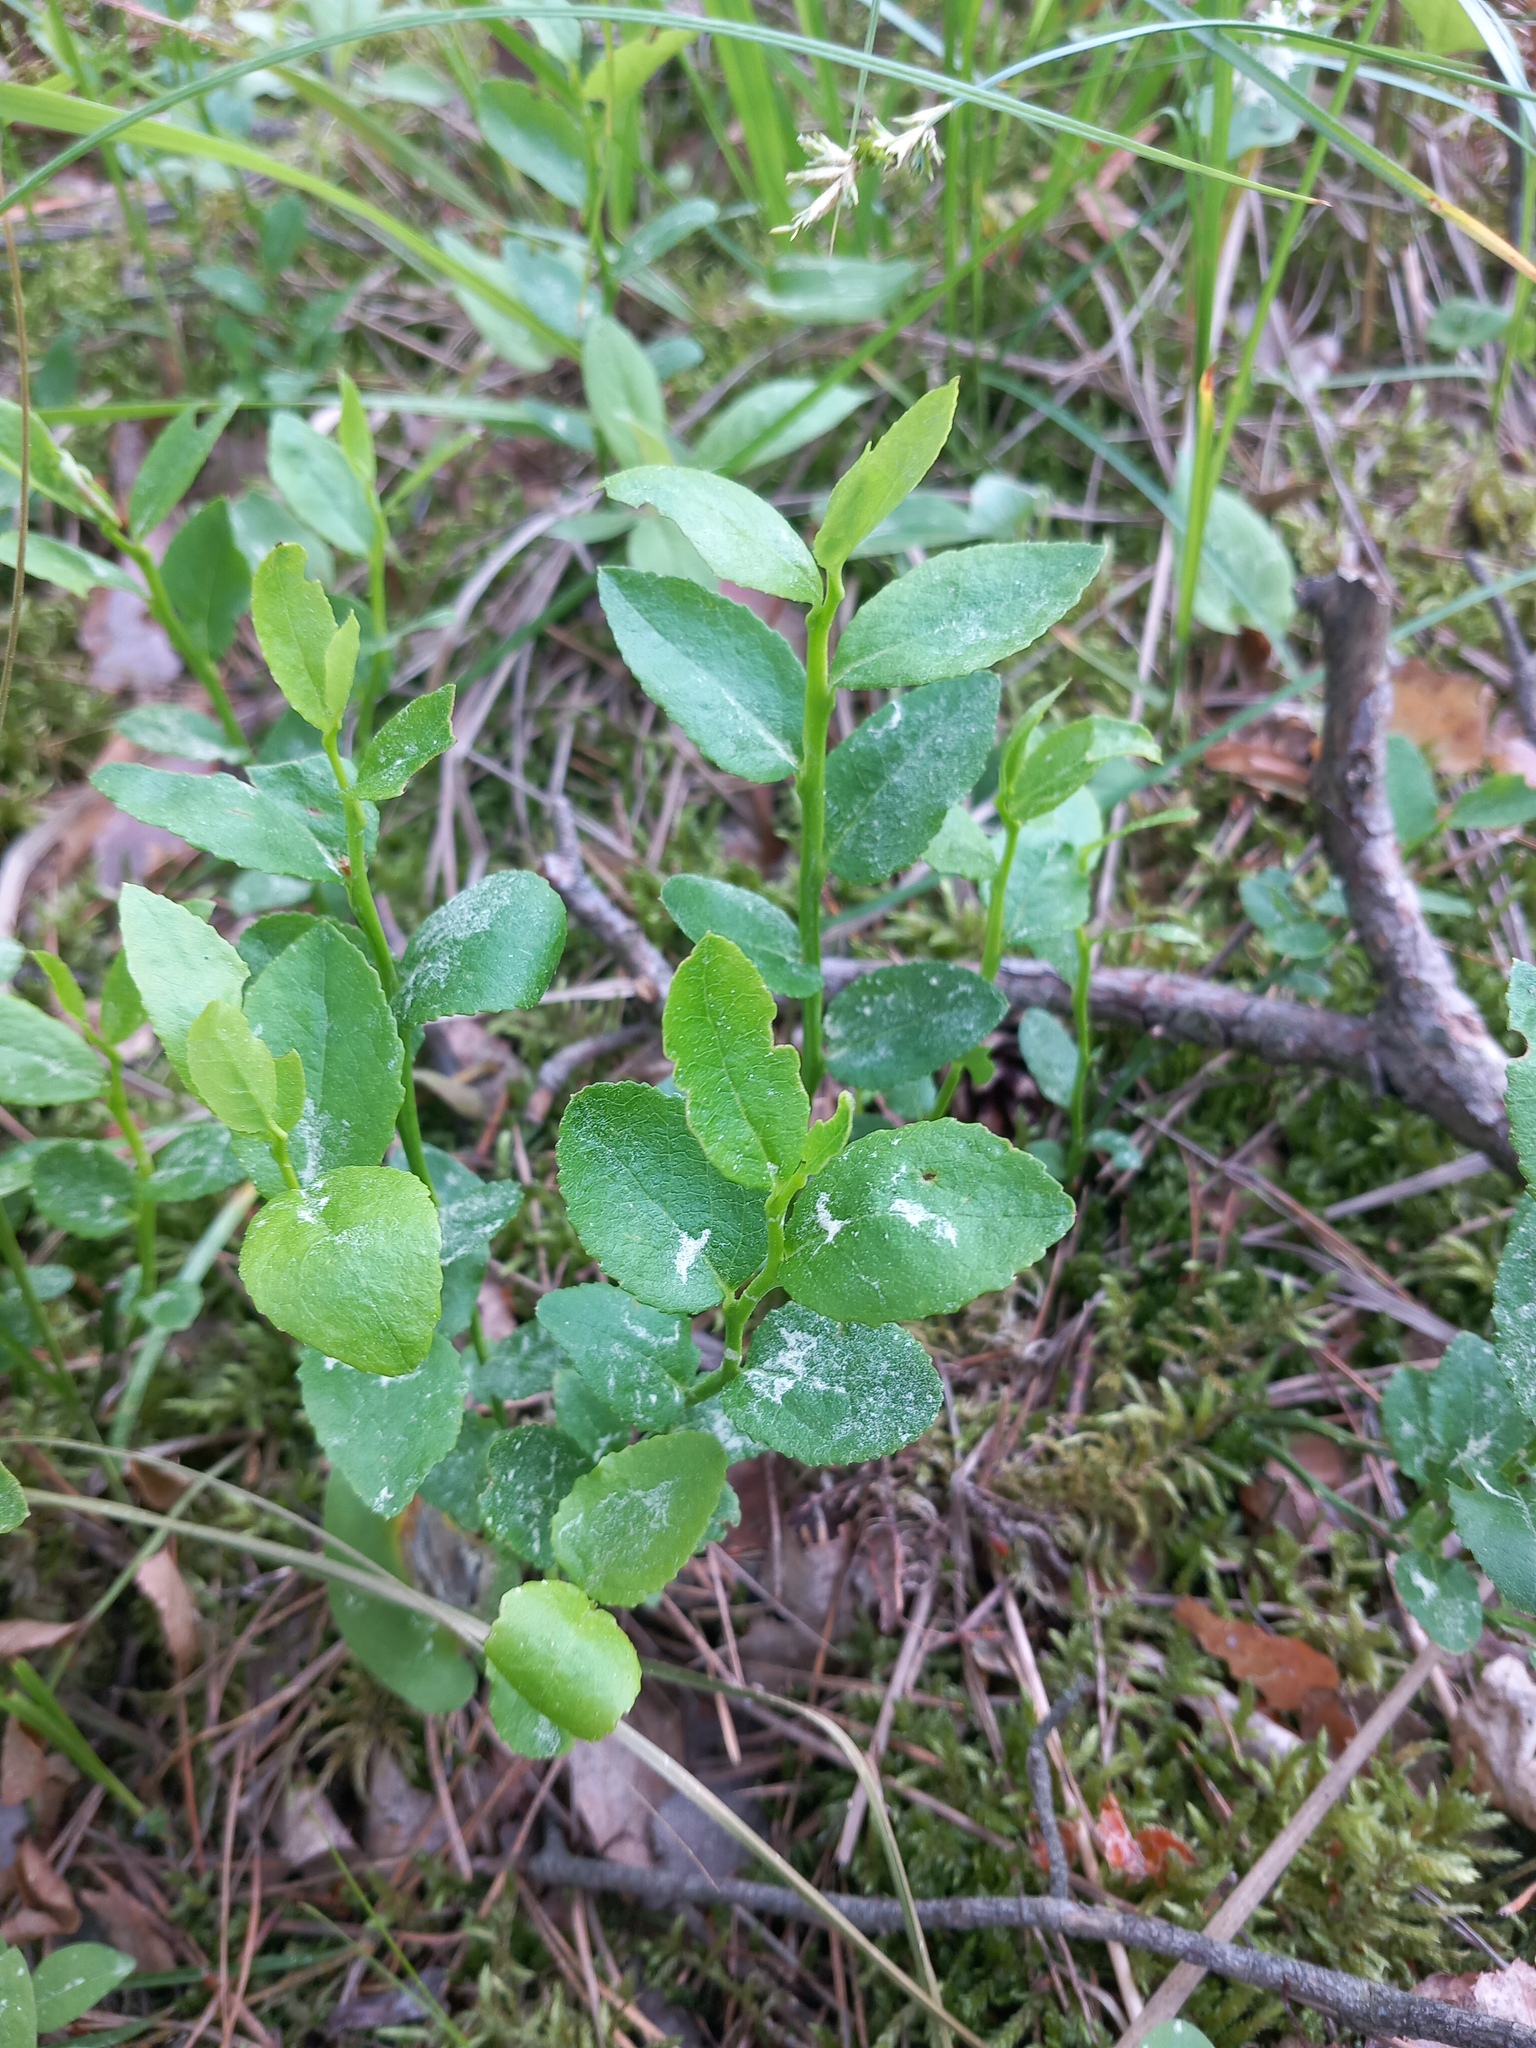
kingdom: Plantae
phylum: Tracheophyta
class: Magnoliopsida
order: Ericales
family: Ericaceae
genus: Vaccinium
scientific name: Vaccinium myrtillus
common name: Bilberry
